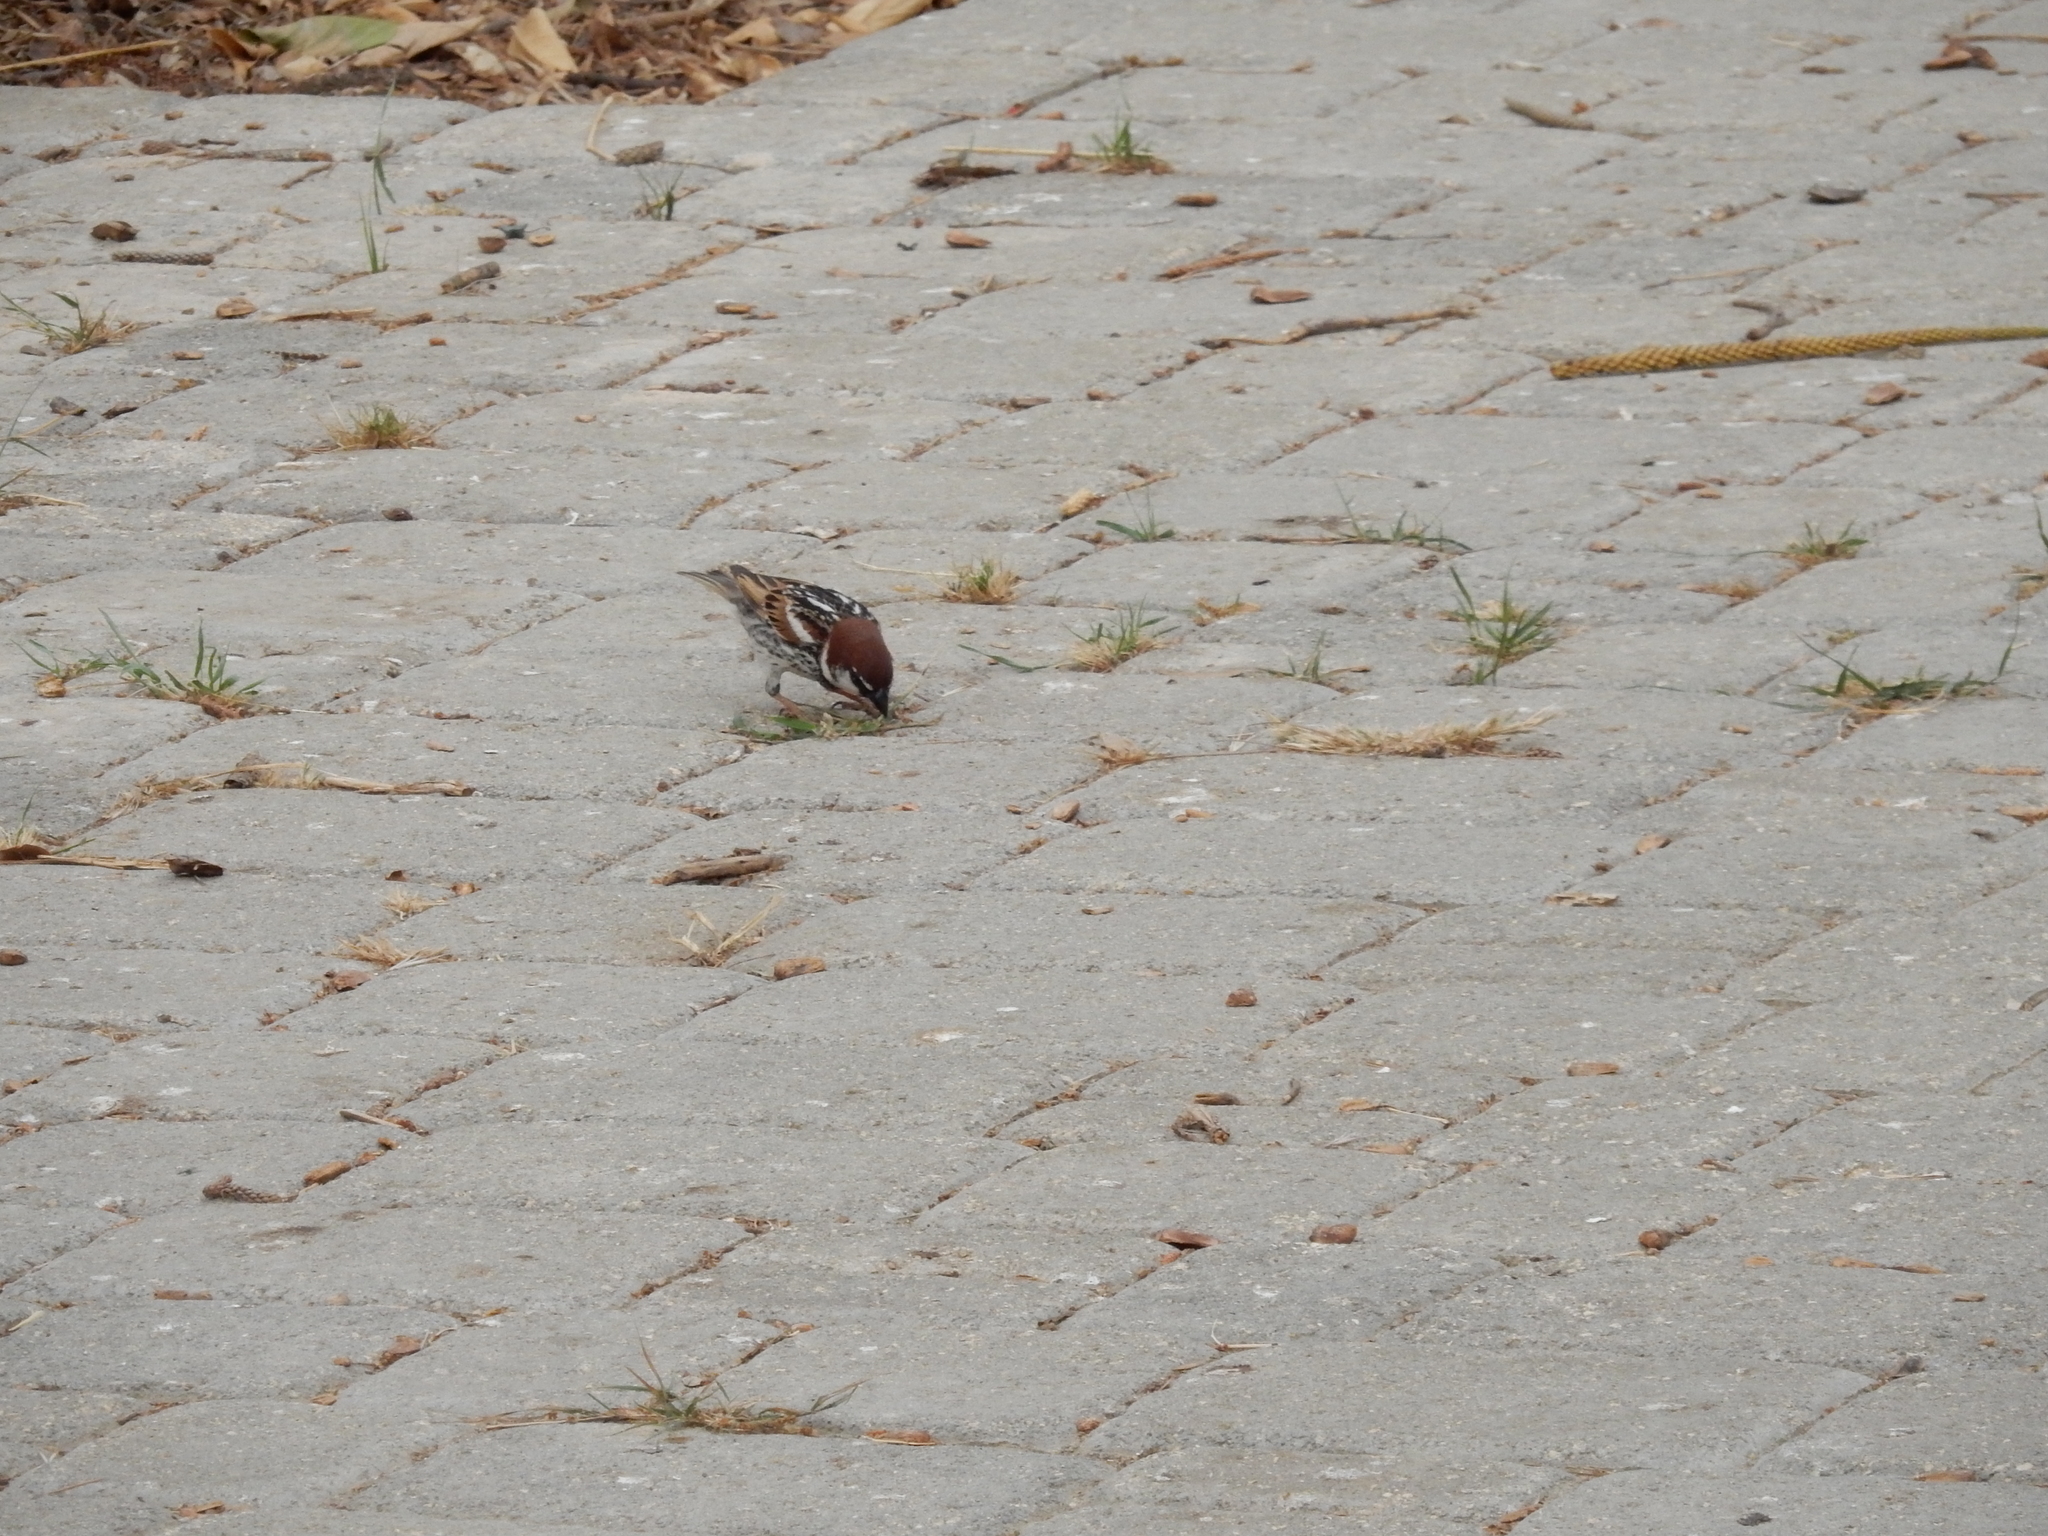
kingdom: Animalia
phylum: Chordata
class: Aves
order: Passeriformes
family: Passeridae
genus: Passer
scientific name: Passer hispaniolensis
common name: Spanish sparrow
